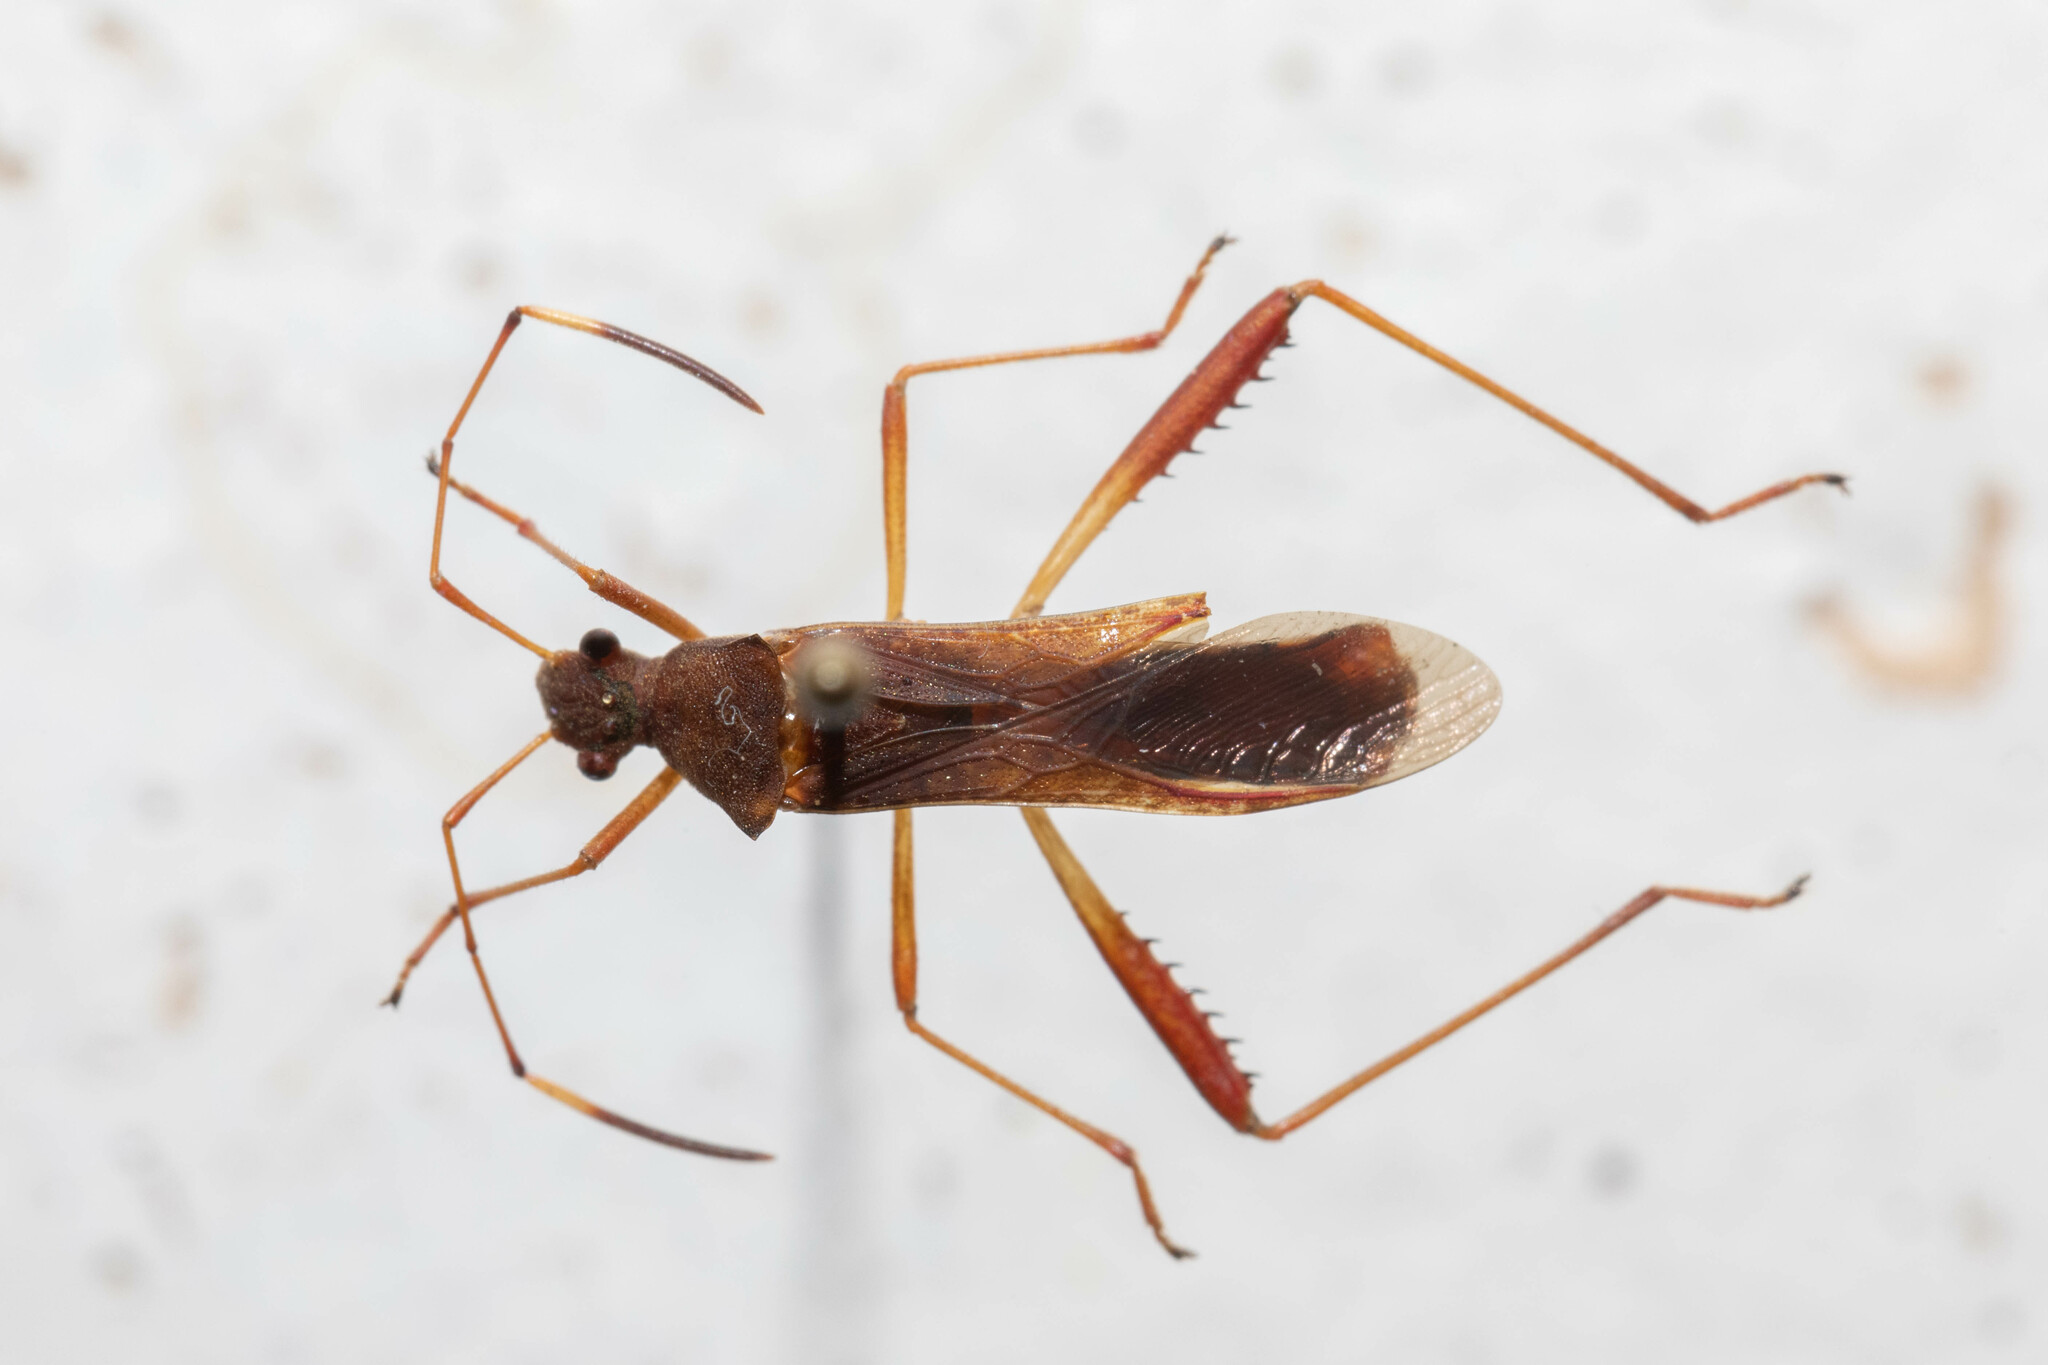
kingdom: Animalia
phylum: Arthropoda
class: Insecta
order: Hemiptera
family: Alydidae
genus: Megalotomus
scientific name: Megalotomus quinquespinosus
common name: Lupine bug
